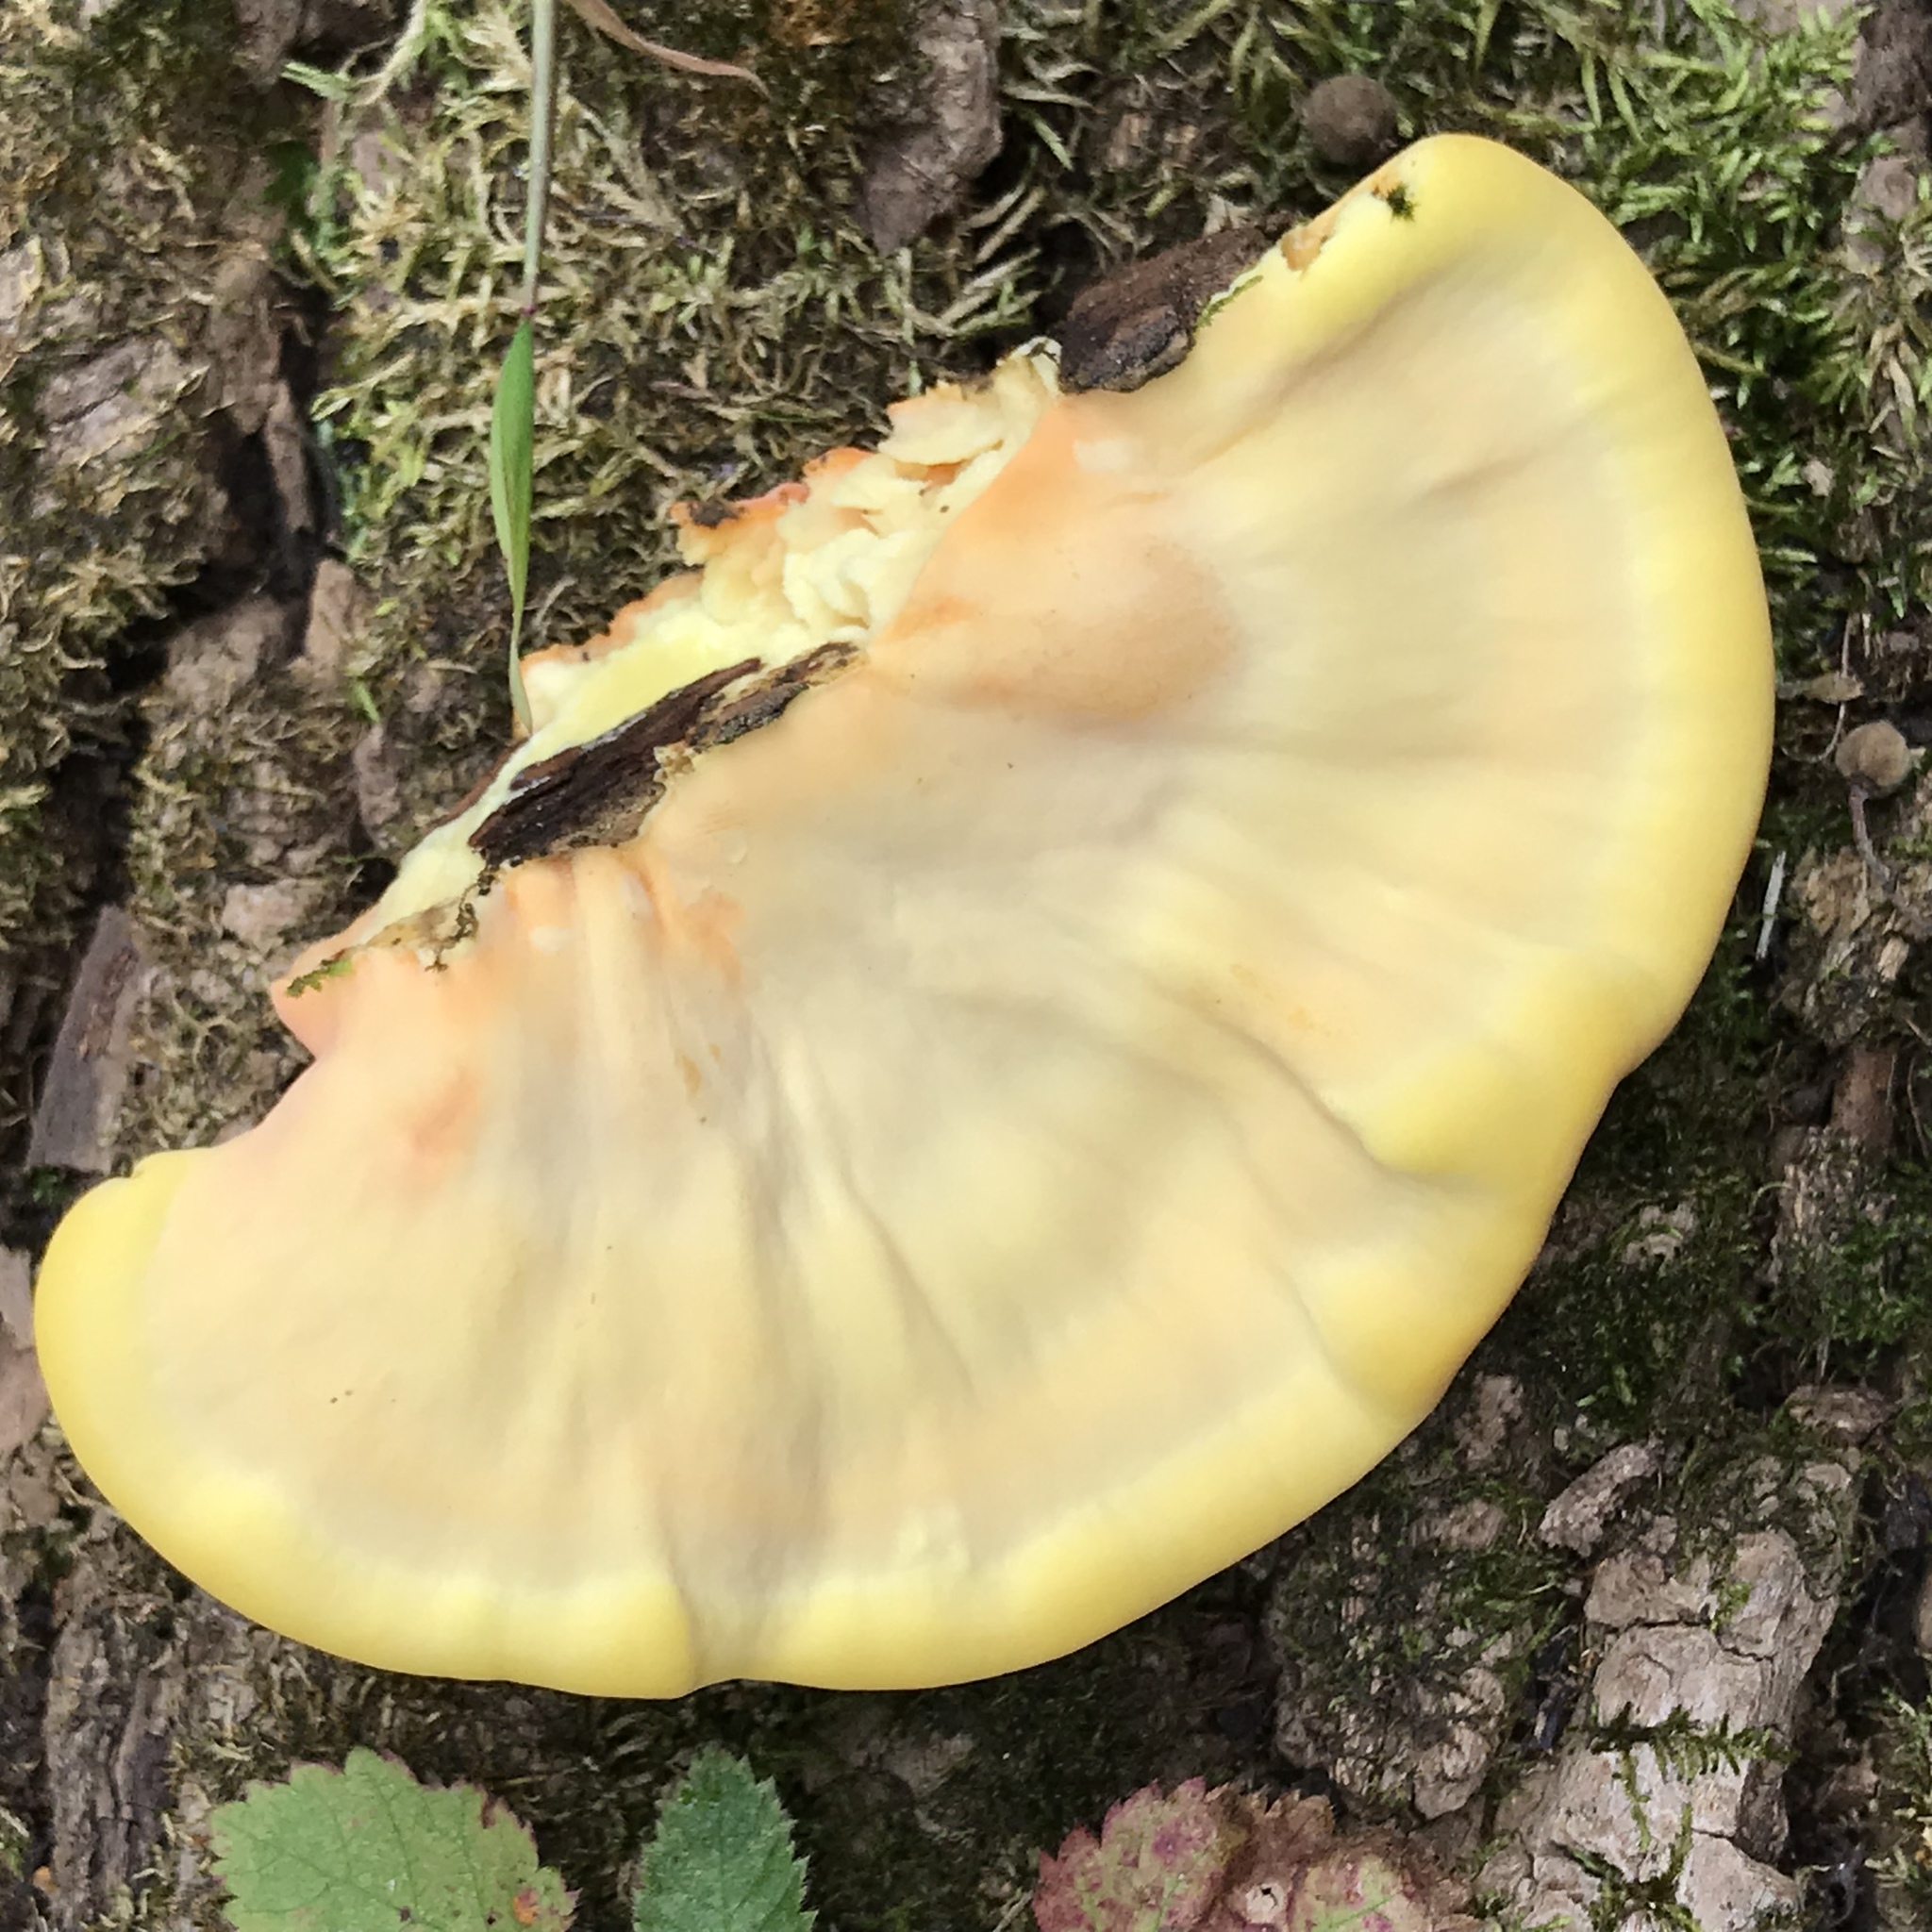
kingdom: Fungi
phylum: Basidiomycota
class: Agaricomycetes
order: Polyporales
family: Laetiporaceae
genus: Laetiporus
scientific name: Laetiporus sulphureus
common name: Chicken of the woods
